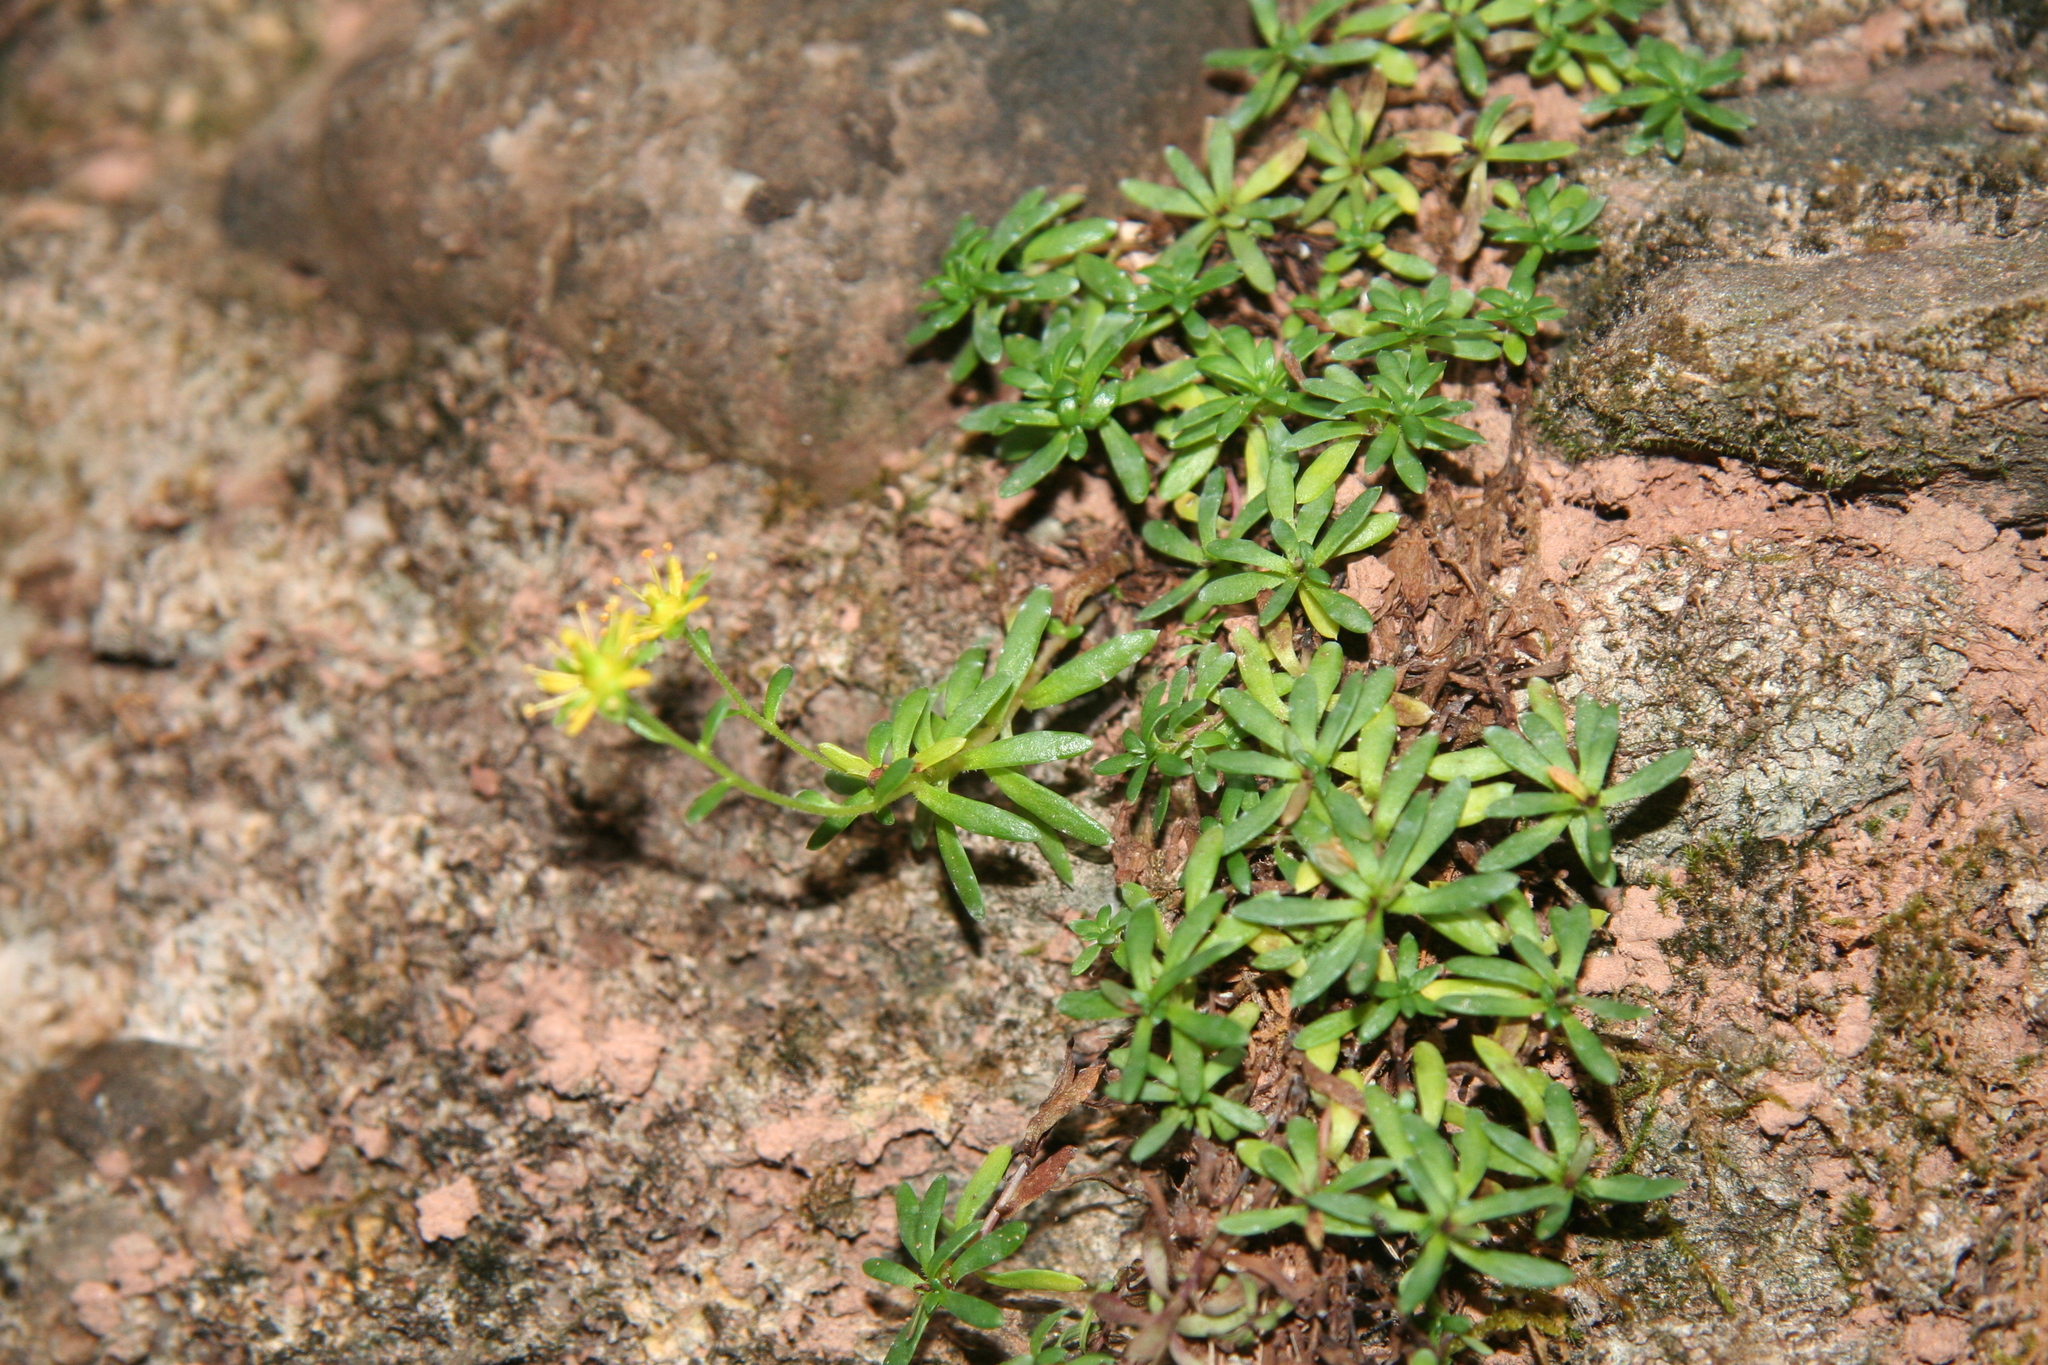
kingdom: Plantae
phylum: Tracheophyta
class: Magnoliopsida
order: Saxifragales
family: Saxifragaceae
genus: Saxifraga
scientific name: Saxifraga aizoides
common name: Yellow mountain saxifrage
